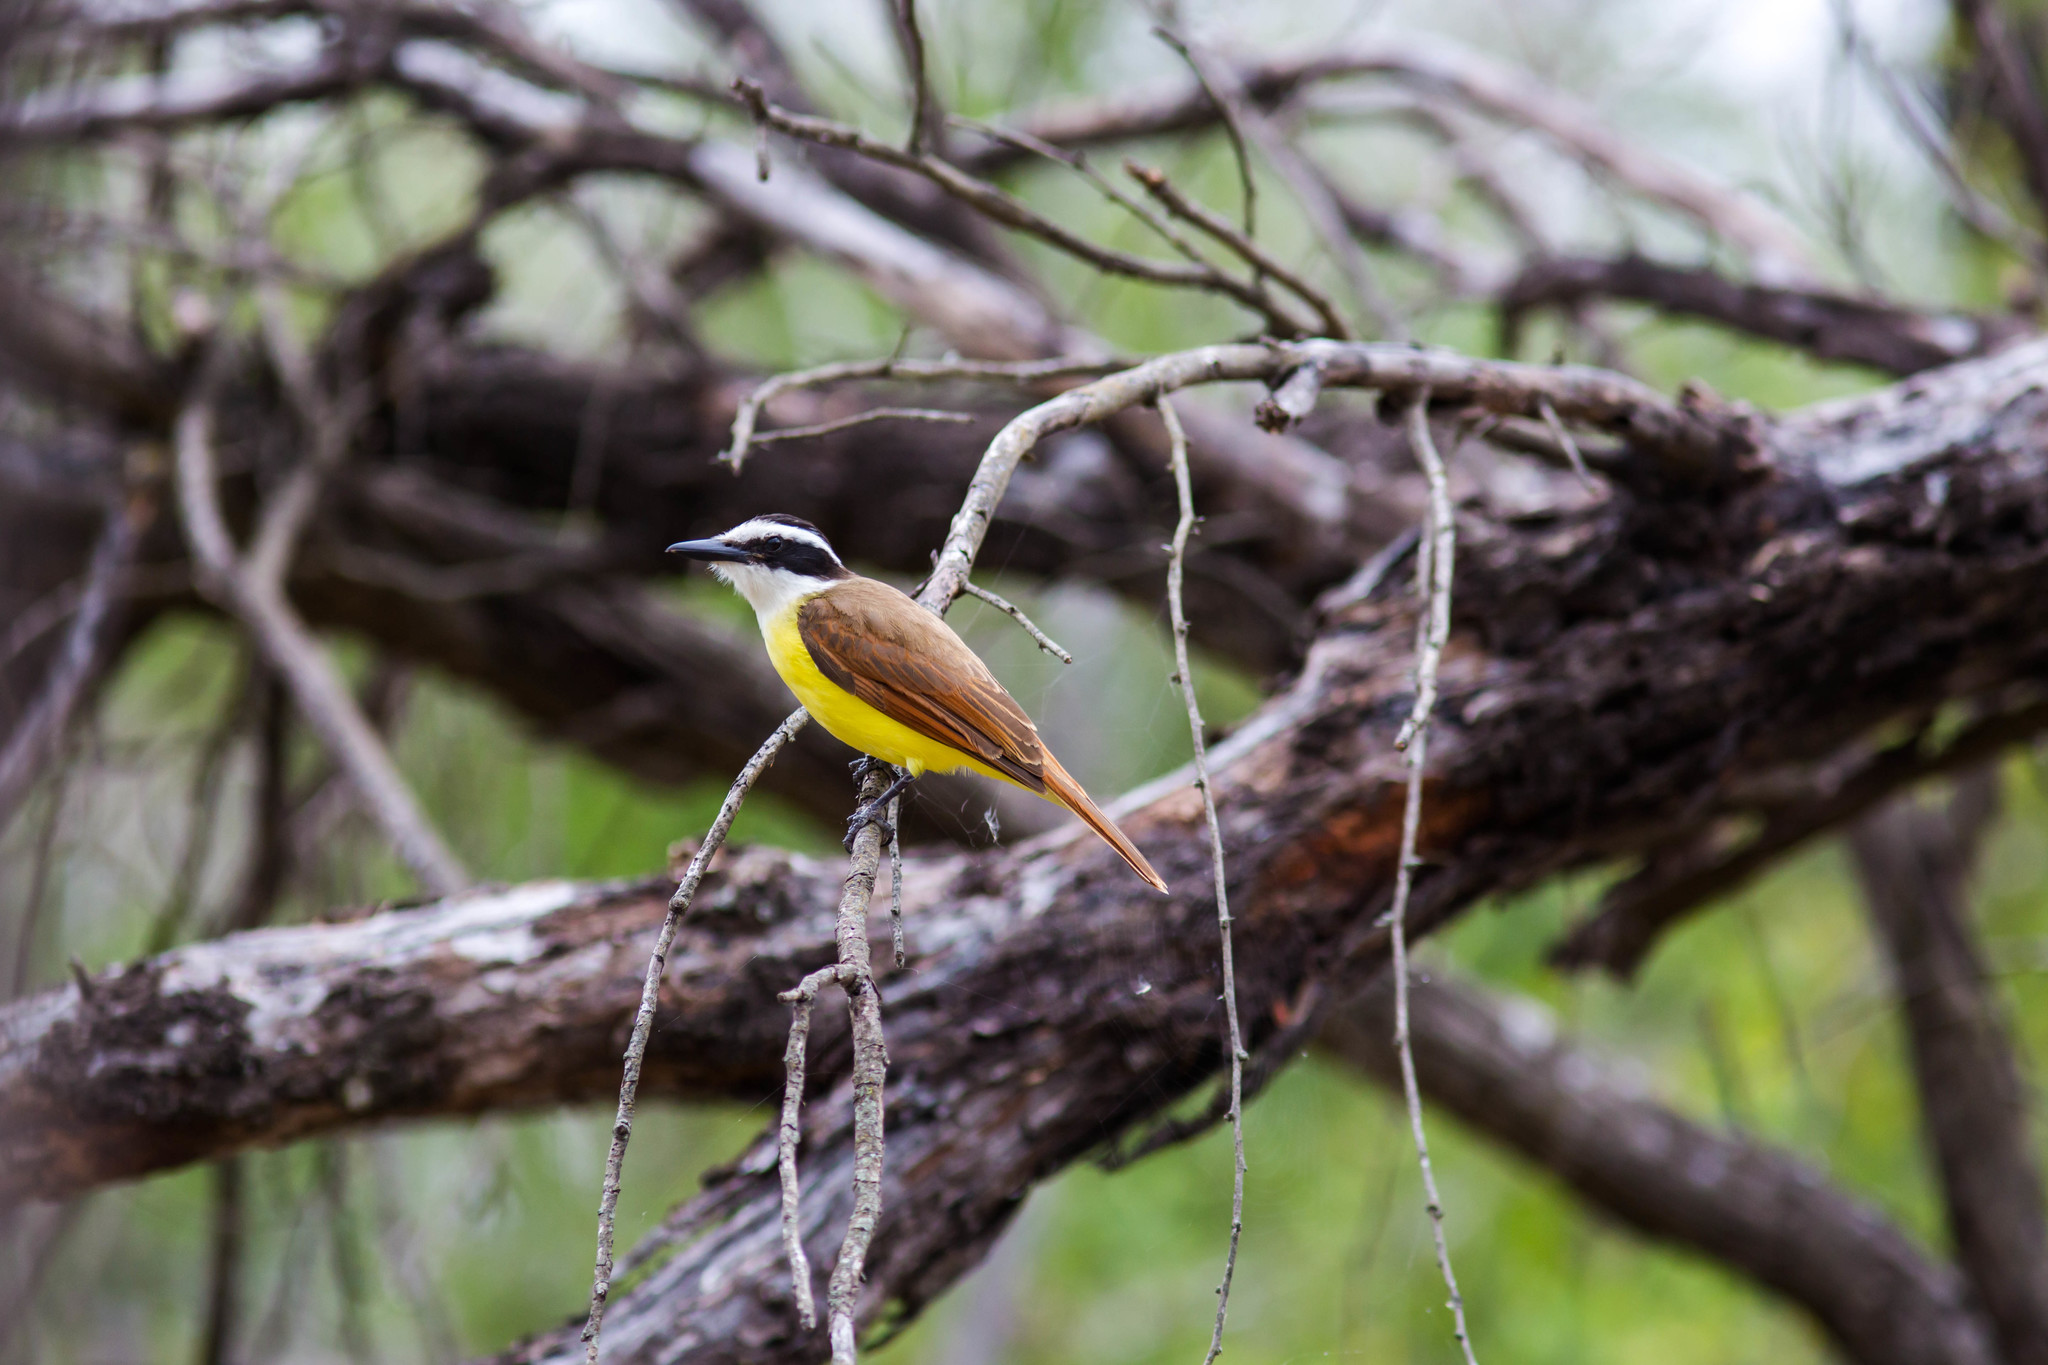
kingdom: Animalia
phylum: Chordata
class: Aves
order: Passeriformes
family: Tyrannidae
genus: Pitangus
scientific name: Pitangus sulphuratus
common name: Great kiskadee
